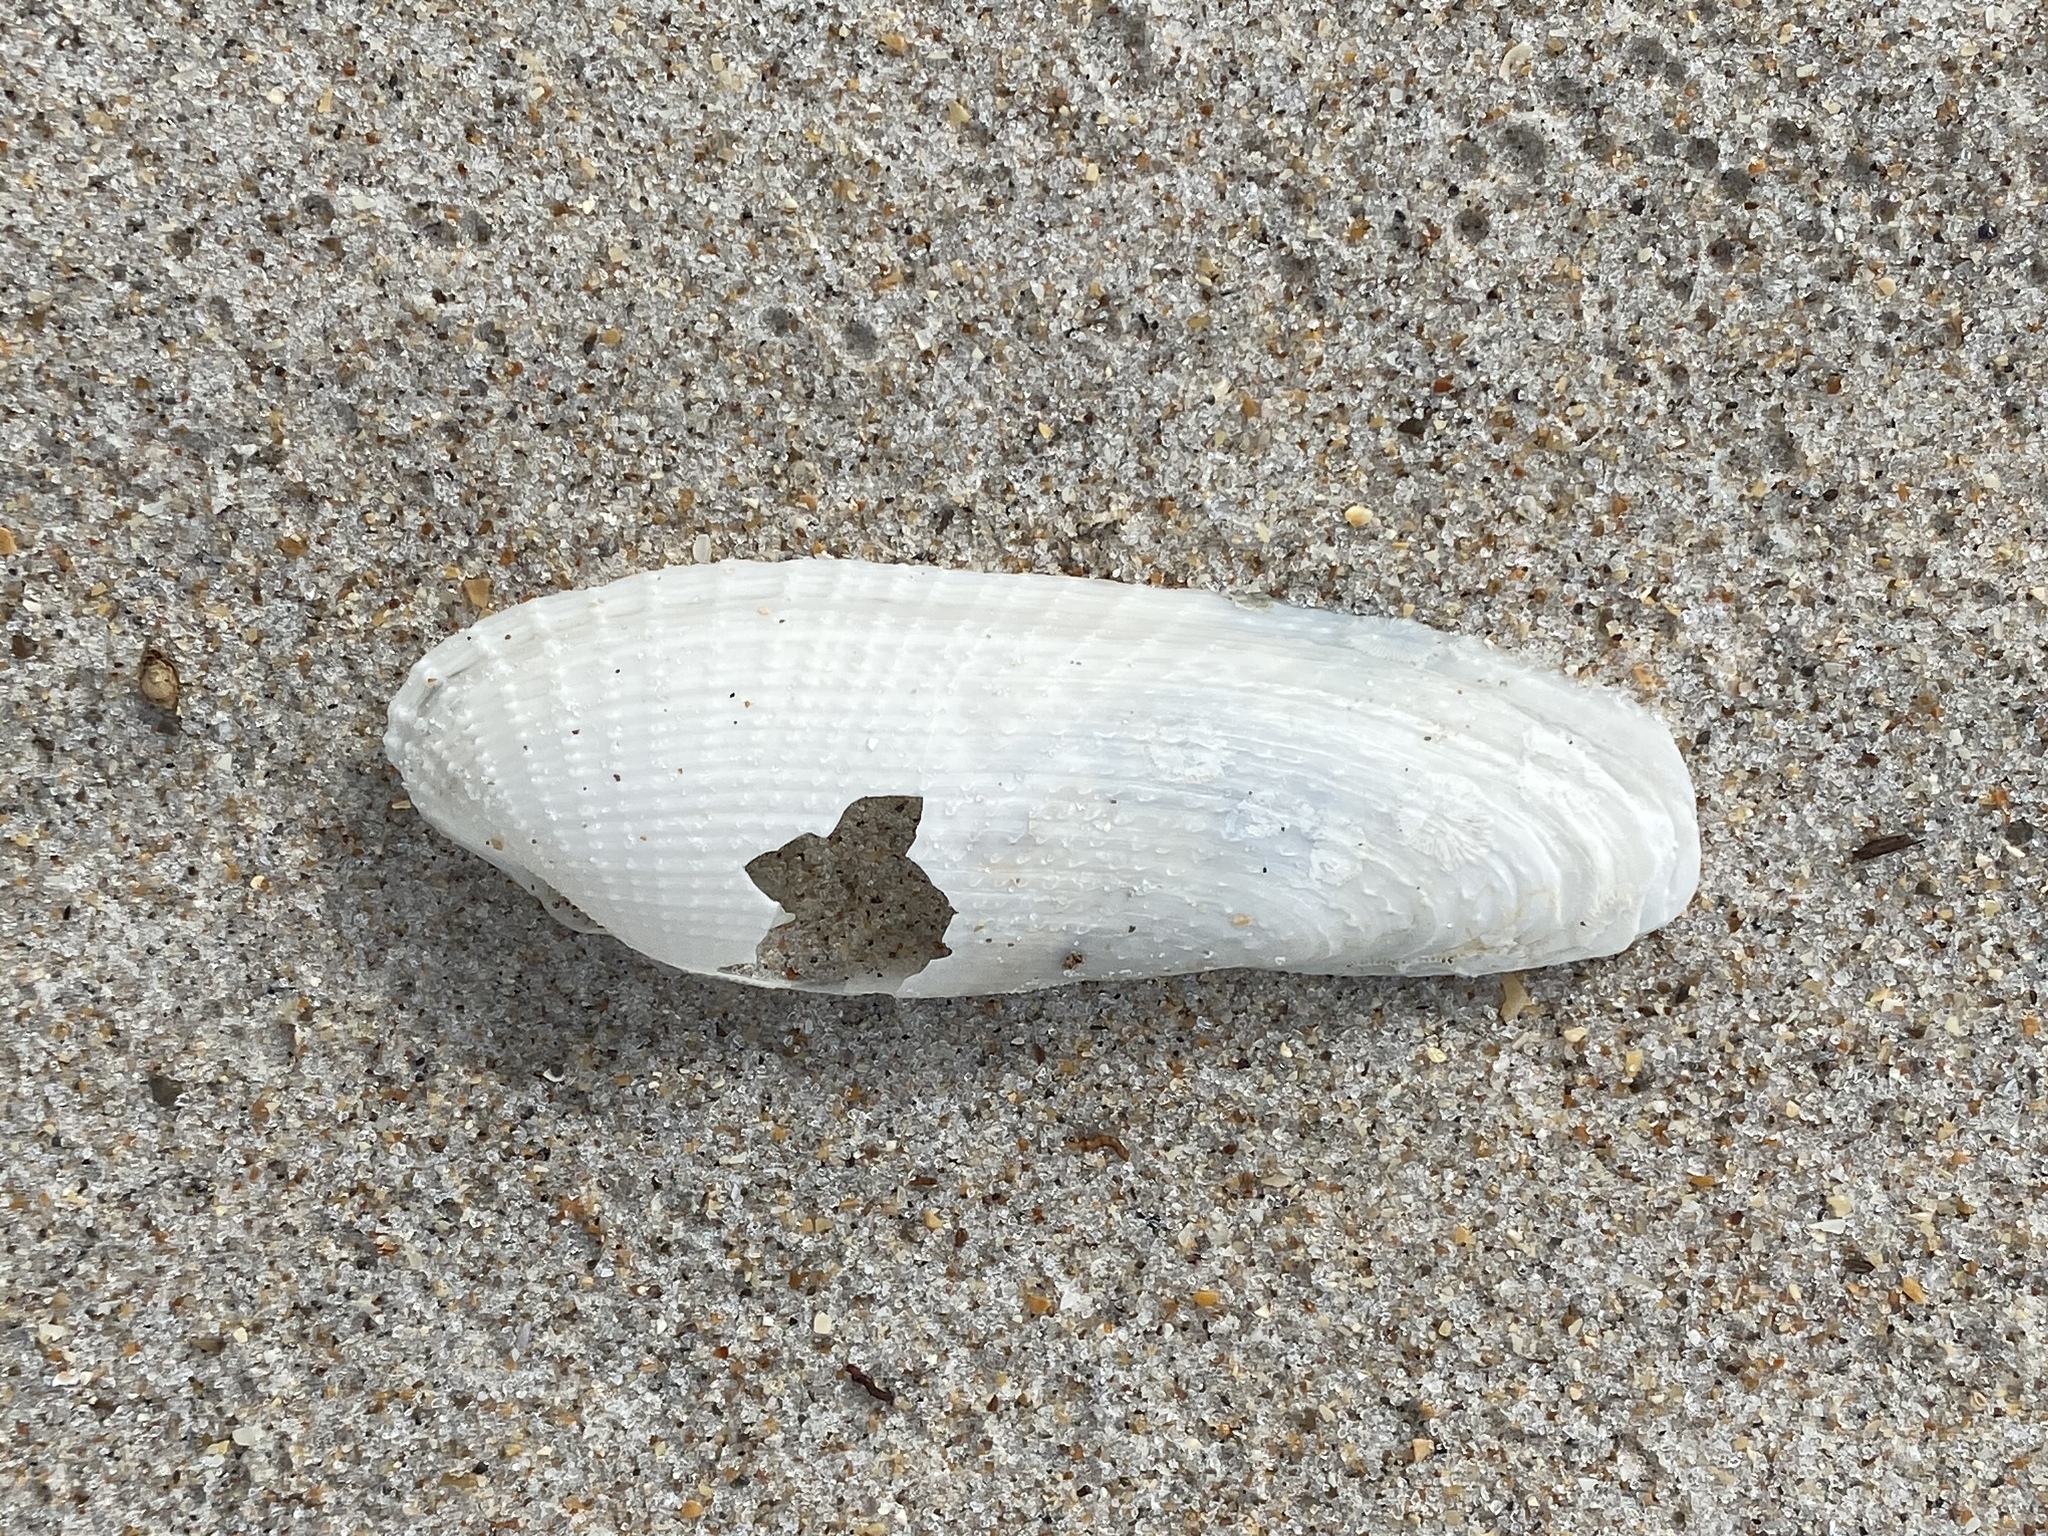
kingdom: Animalia
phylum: Mollusca
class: Bivalvia
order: Myida
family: Pholadidae
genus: Pholas
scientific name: Pholas campechiensis
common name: Campeche angel wing
